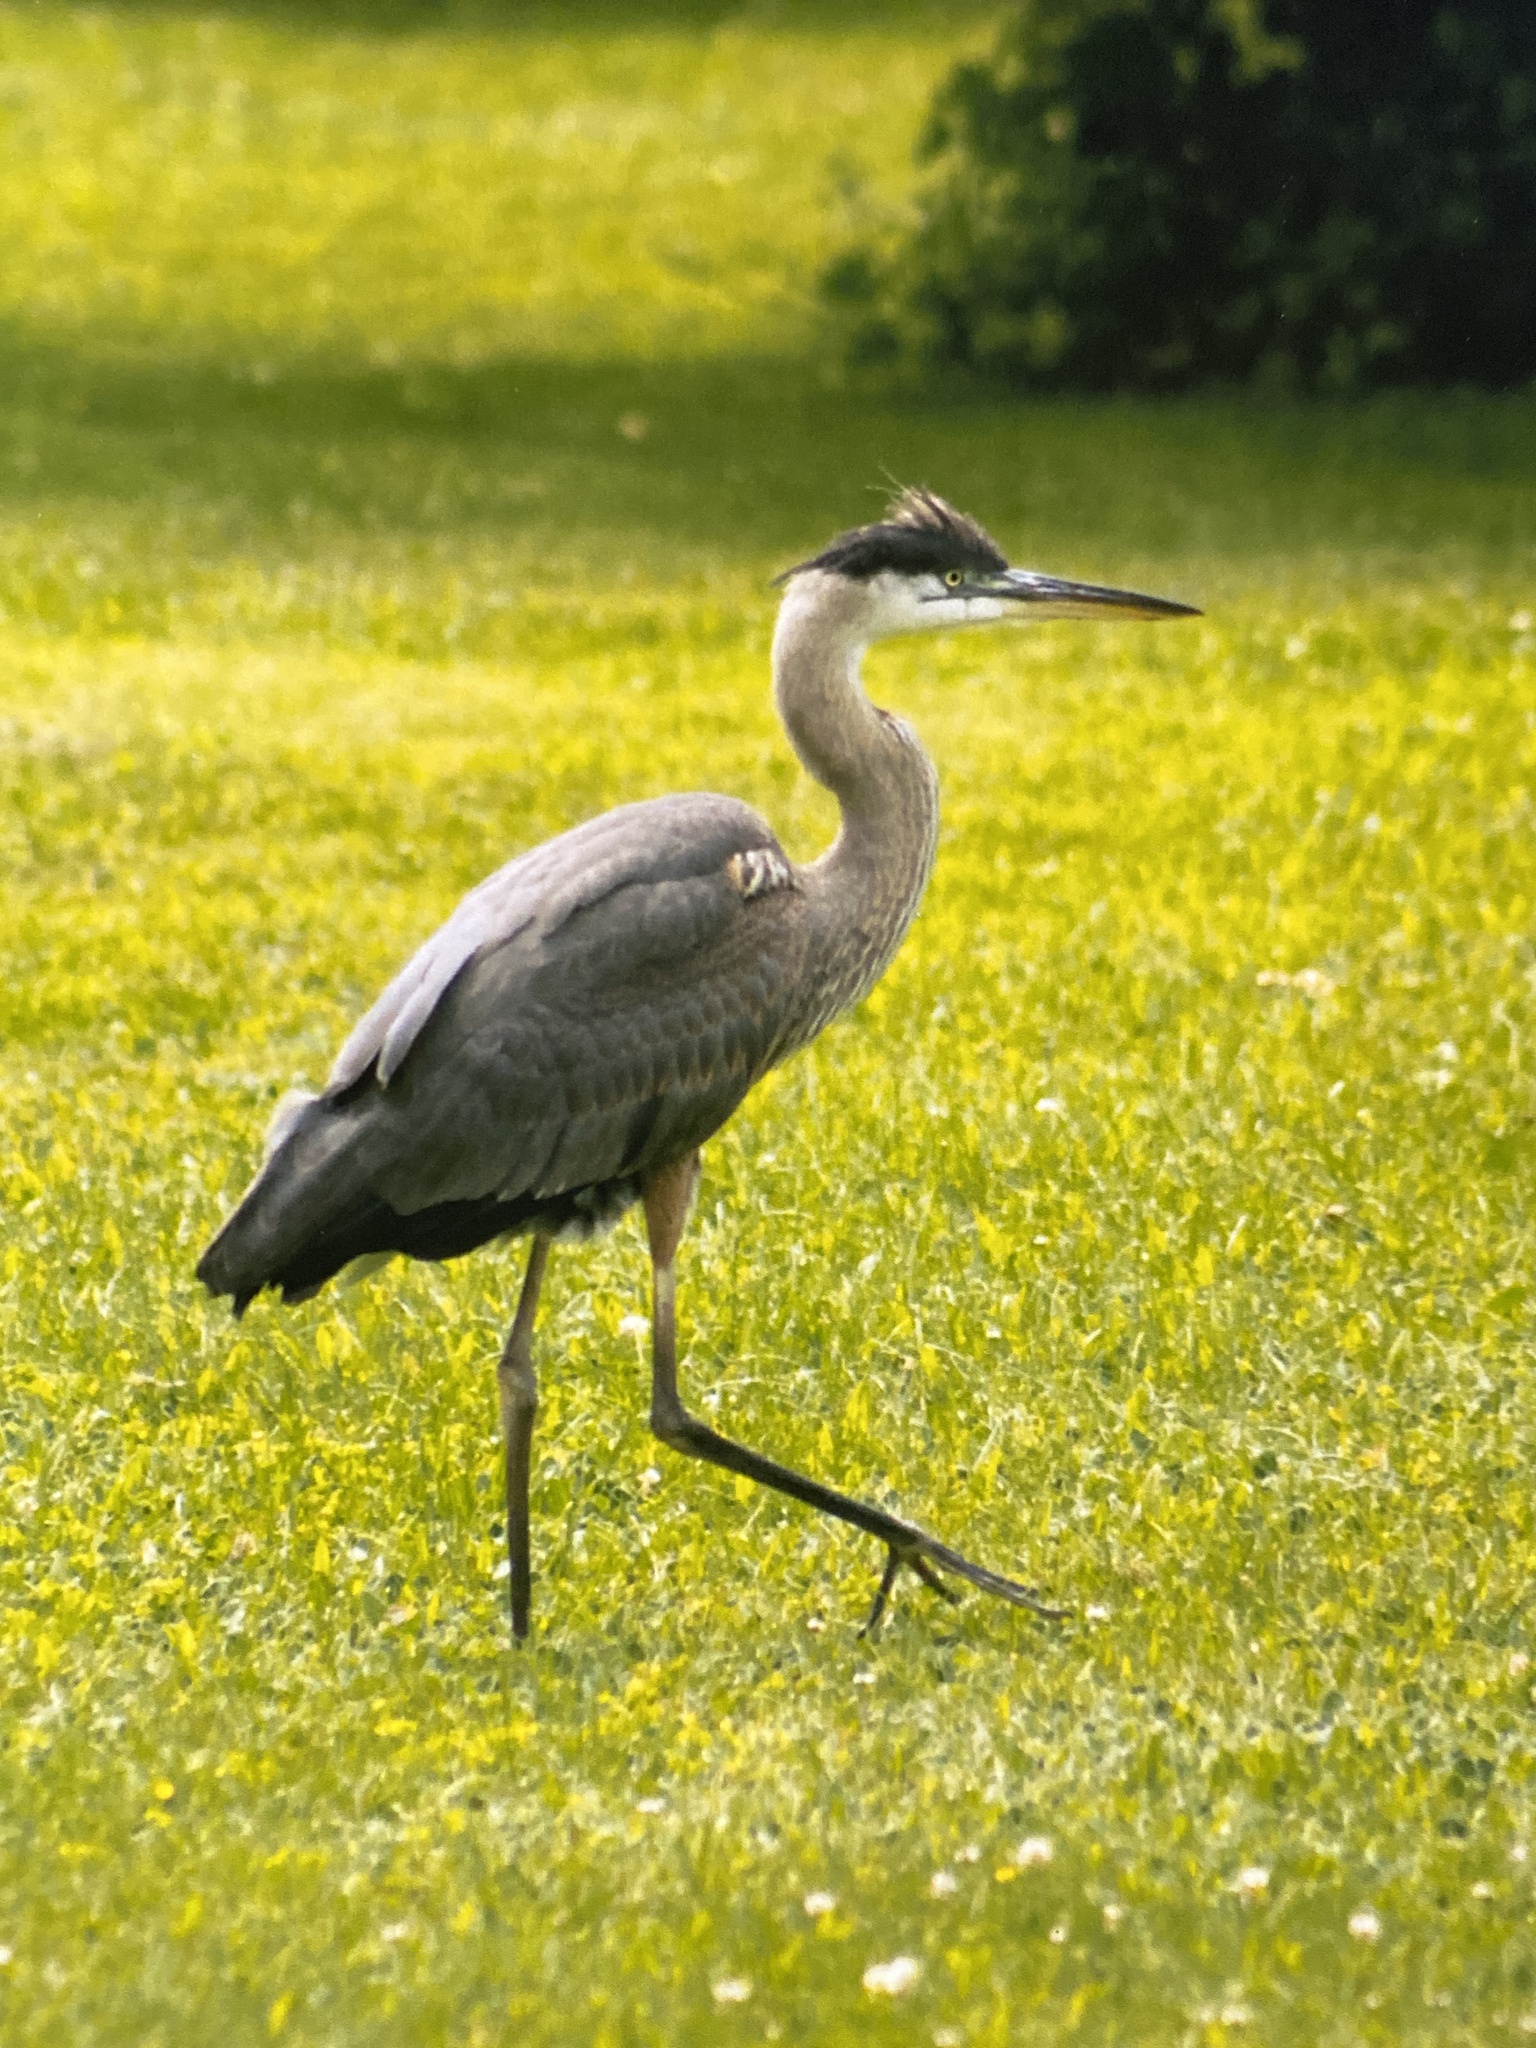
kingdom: Animalia
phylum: Chordata
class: Aves
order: Pelecaniformes
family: Ardeidae
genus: Ardea
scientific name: Ardea herodias
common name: Great blue heron
